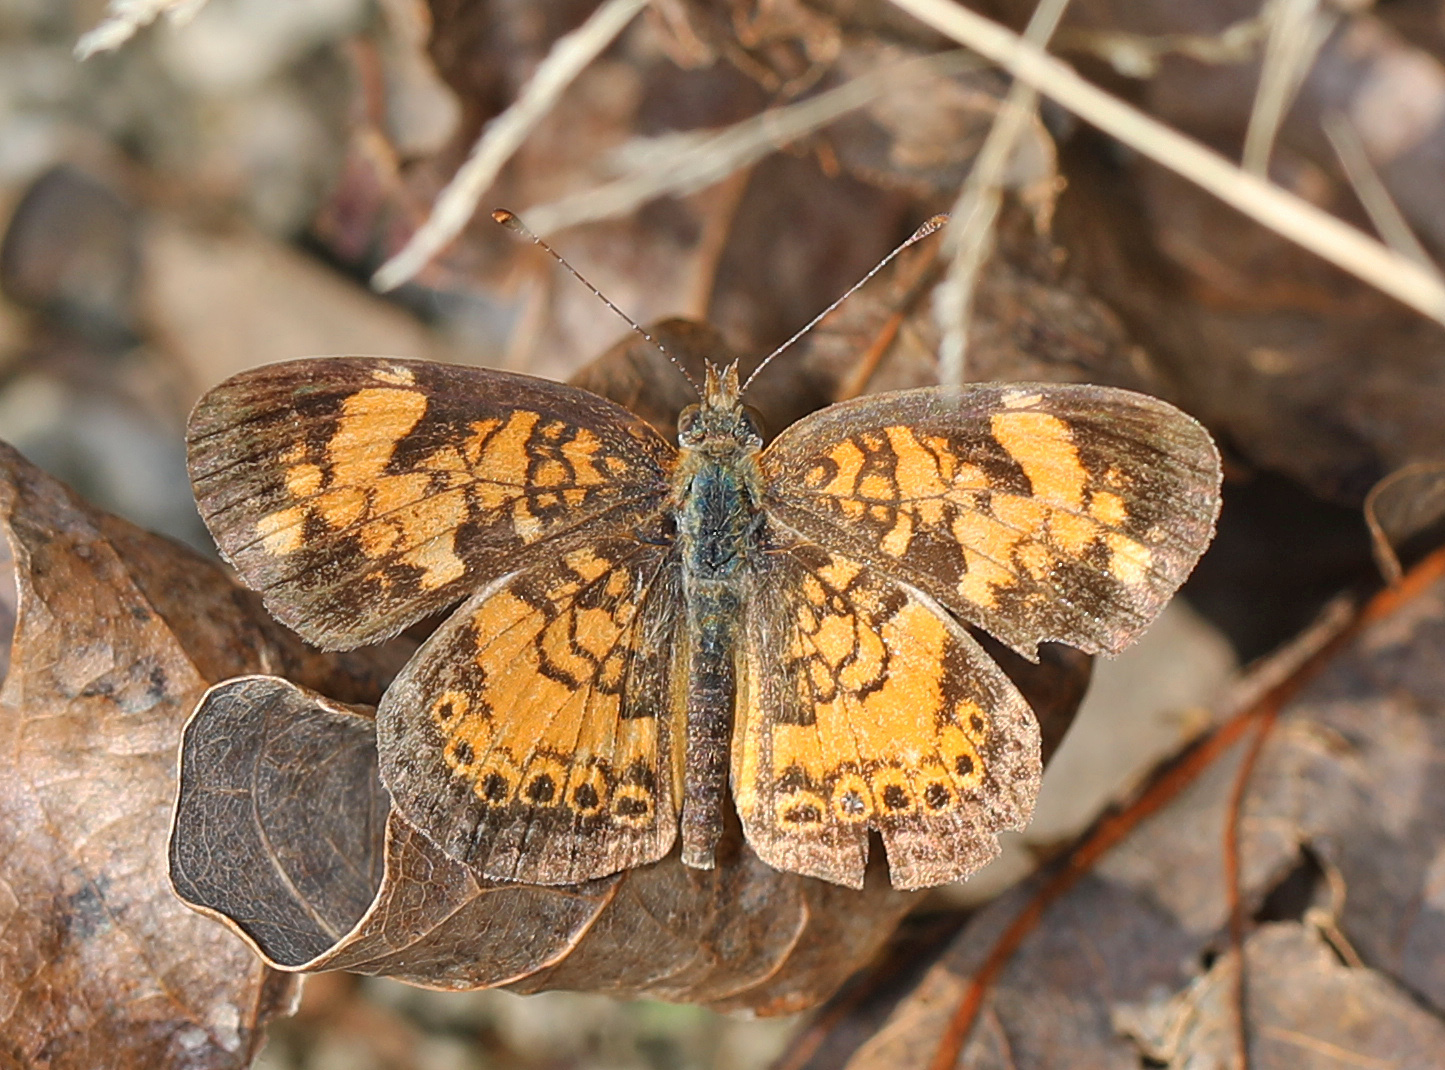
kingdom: Animalia
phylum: Arthropoda
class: Insecta
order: Lepidoptera
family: Nymphalidae
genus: Phyciodes
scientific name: Phyciodes tharos
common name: Pearl crescent
